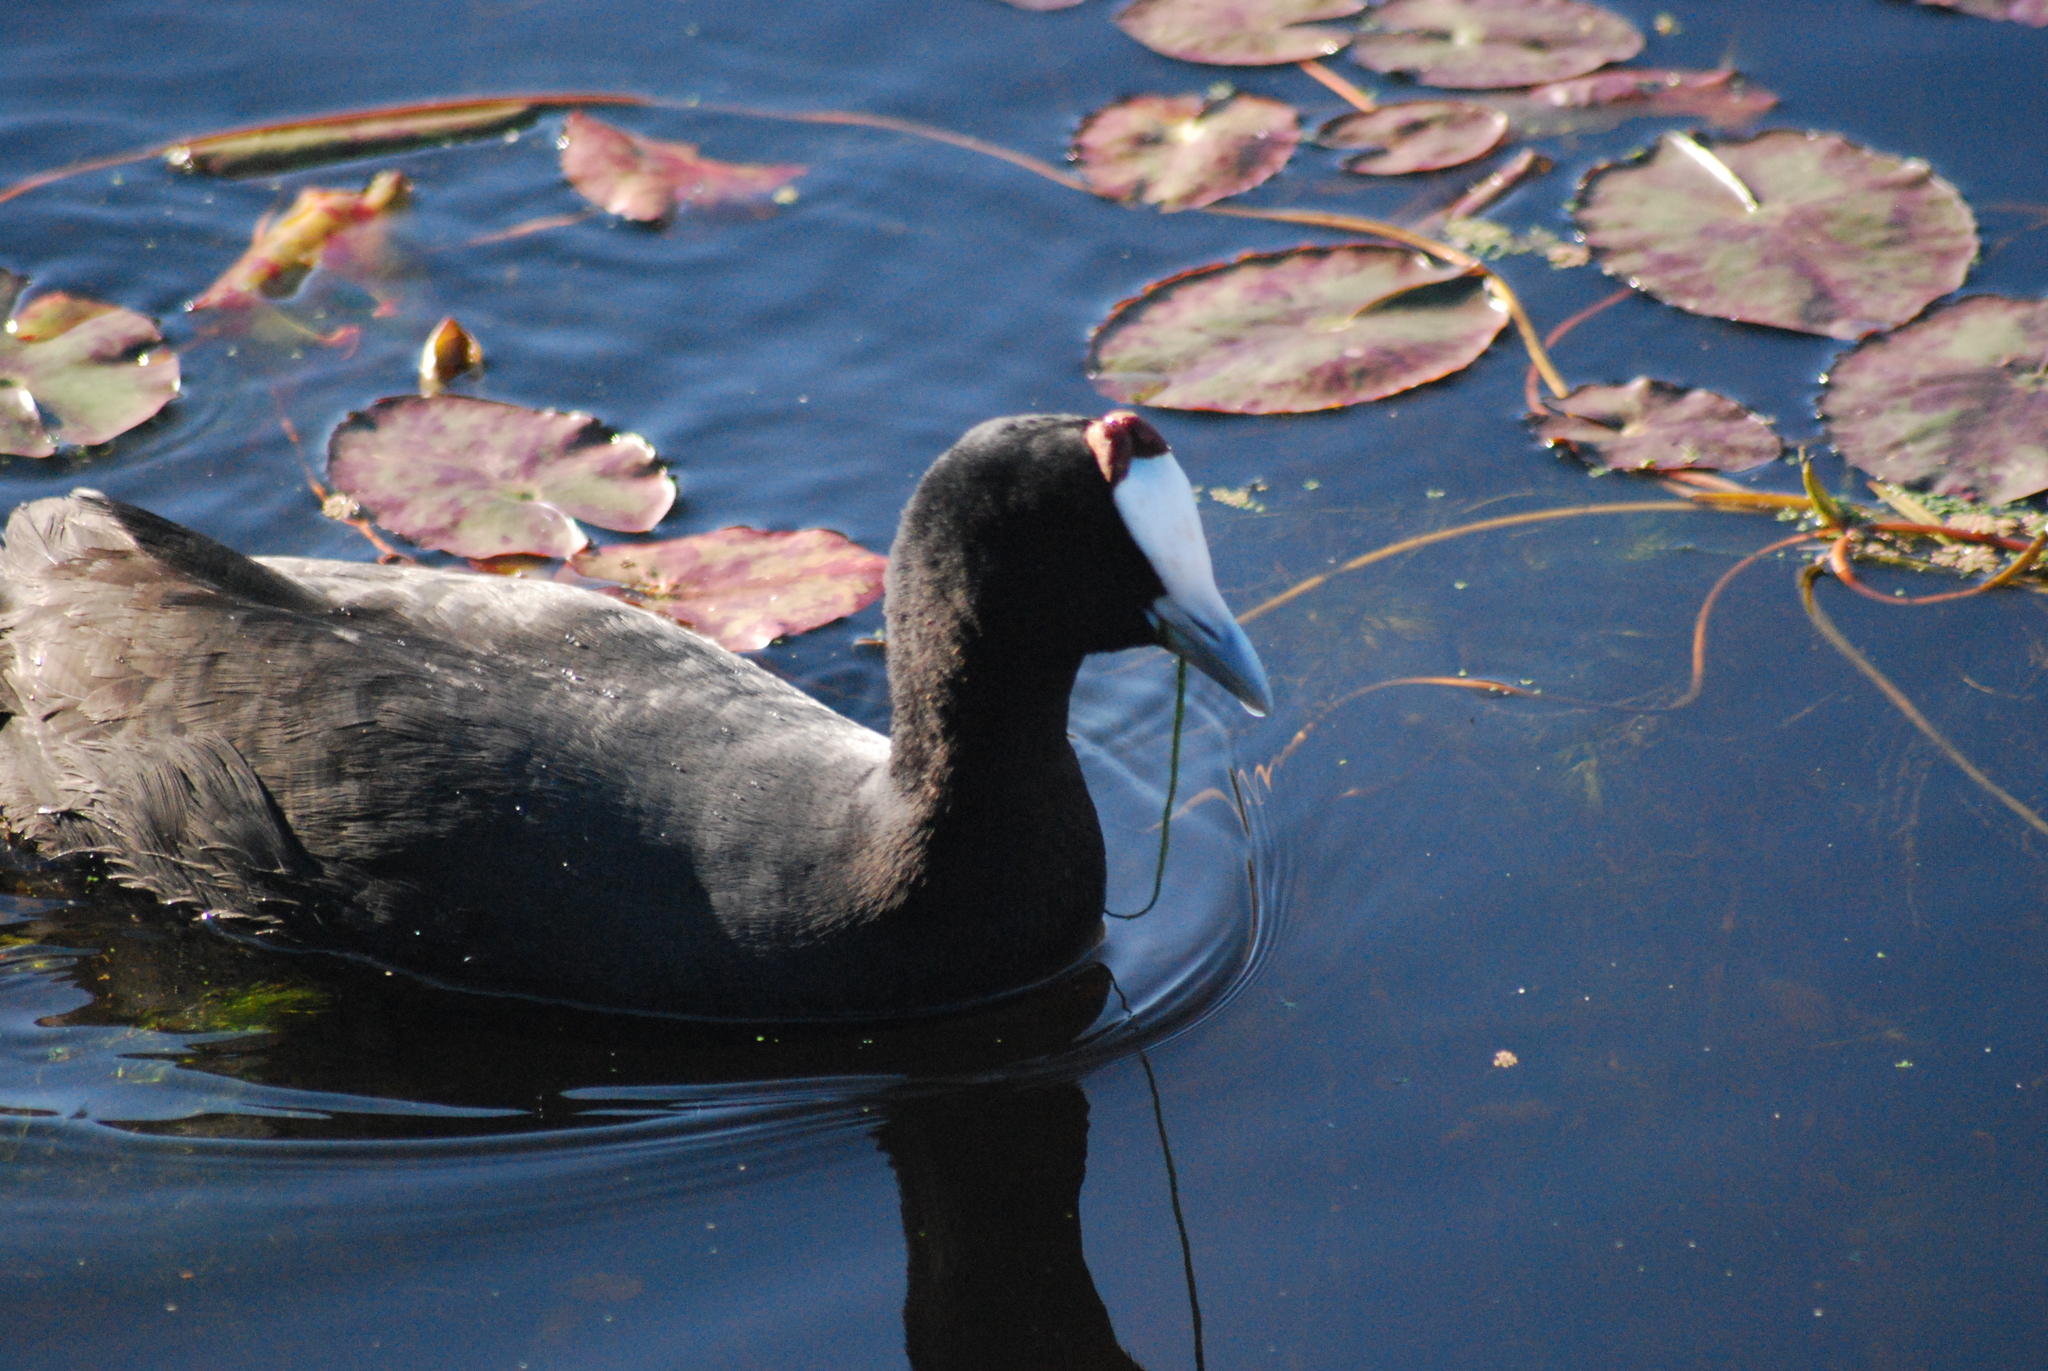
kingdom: Animalia
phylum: Chordata
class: Aves
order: Gruiformes
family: Rallidae
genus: Fulica
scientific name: Fulica cristata
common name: Red-knobbed coot
